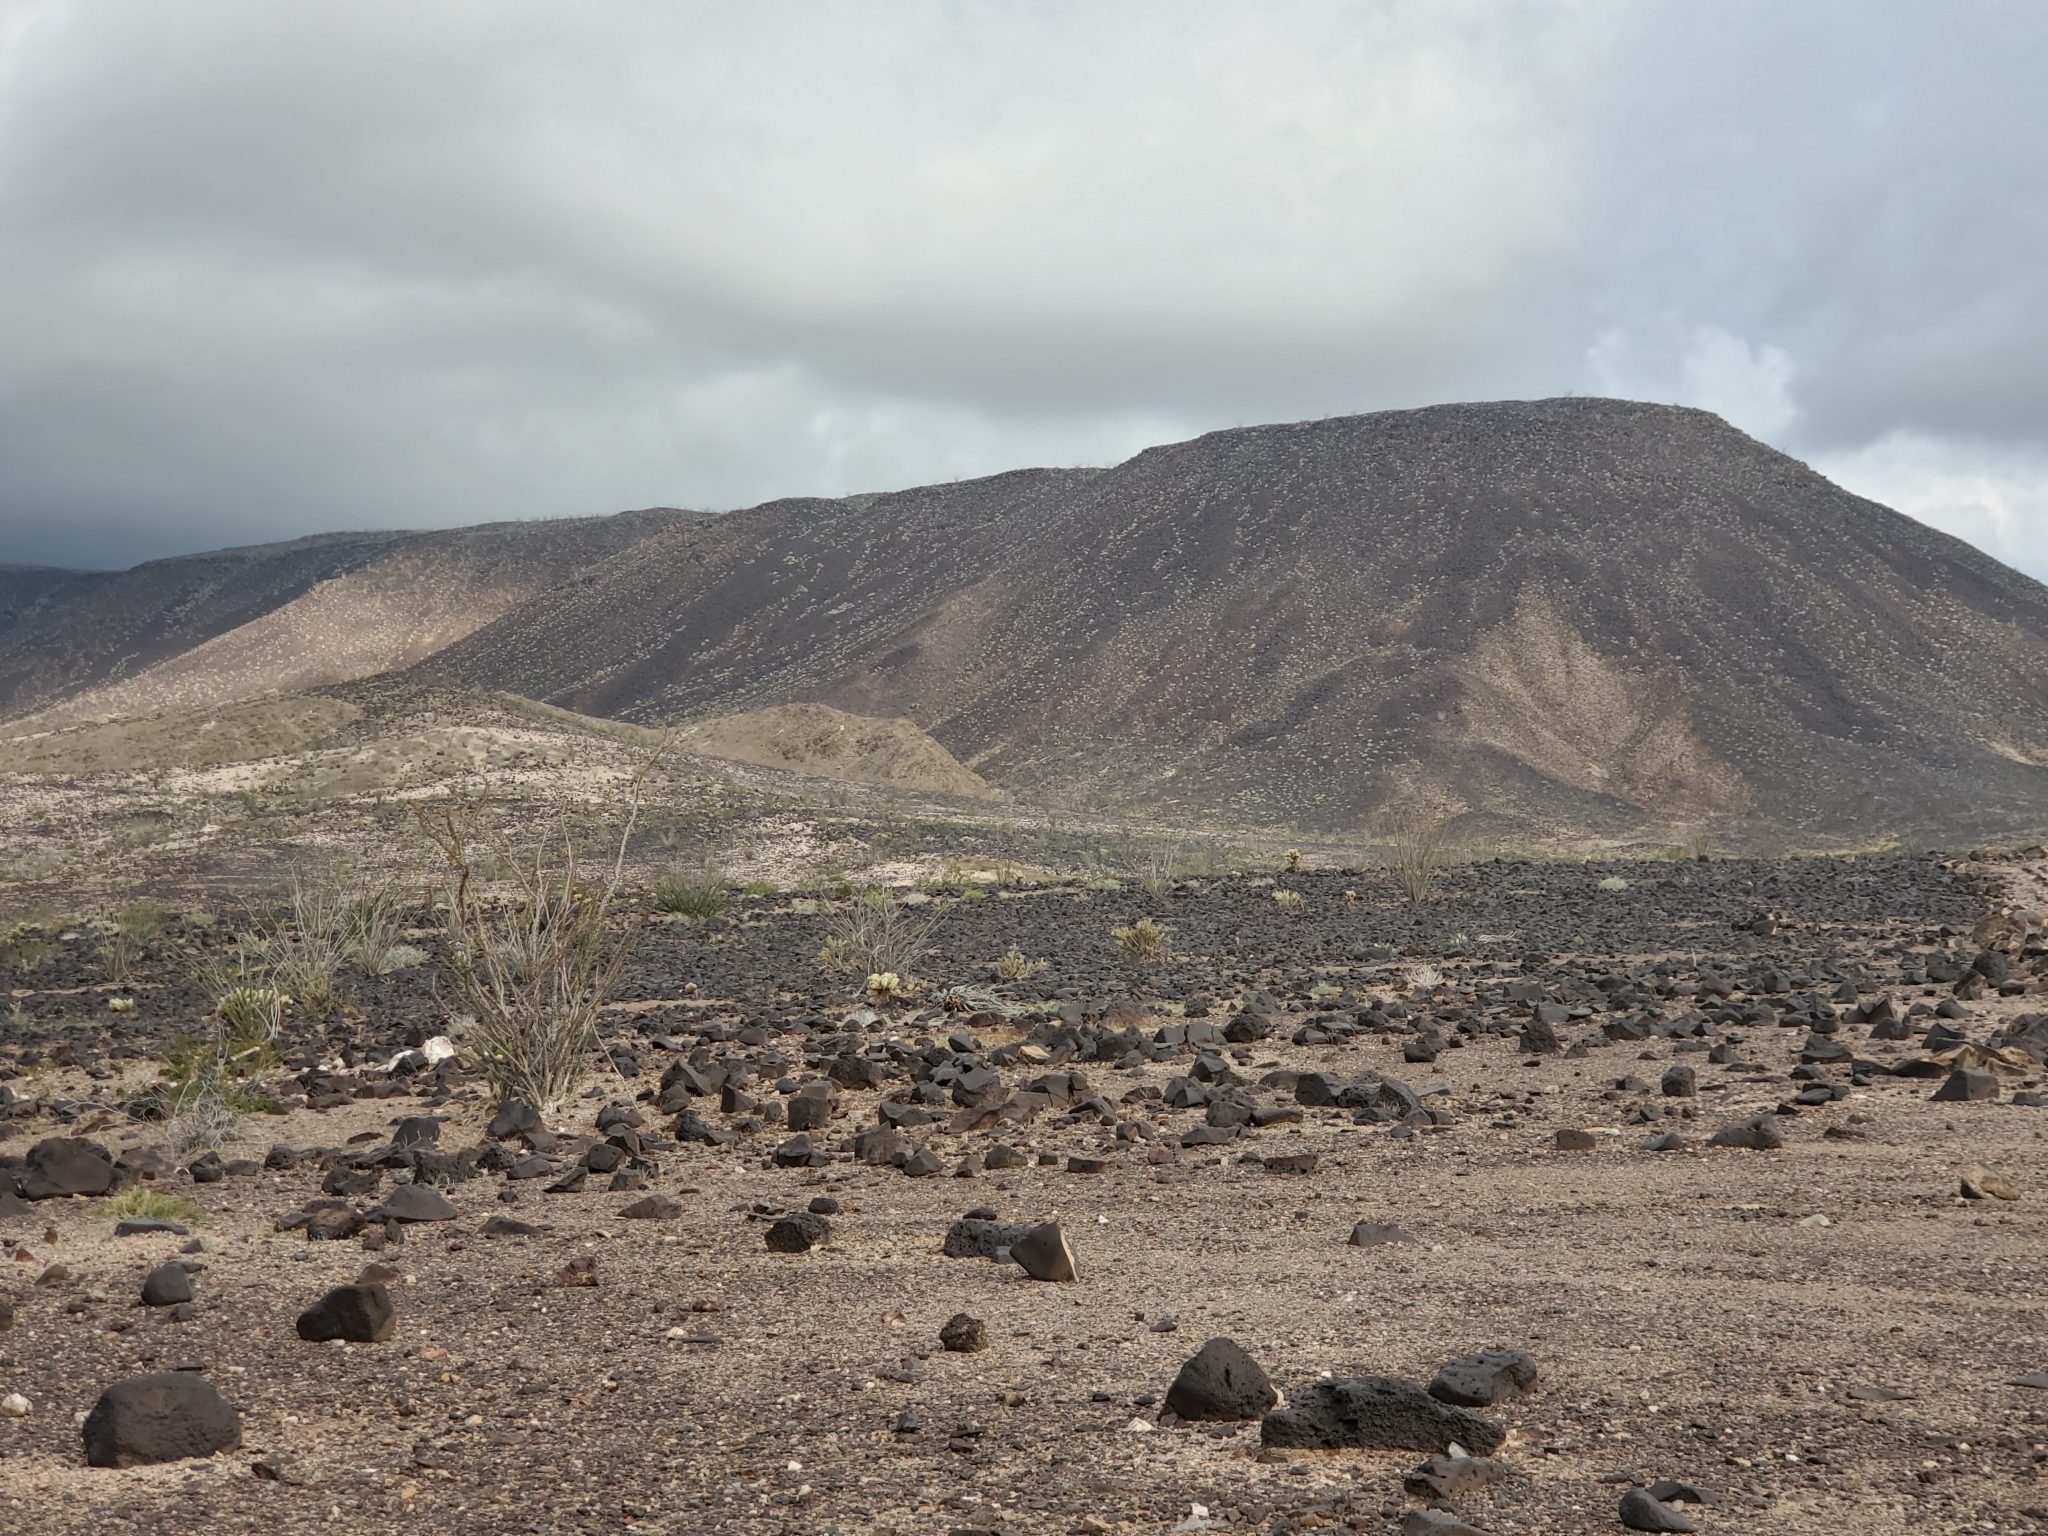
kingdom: Plantae
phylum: Tracheophyta
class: Magnoliopsida
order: Ericales
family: Fouquieriaceae
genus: Fouquieria
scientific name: Fouquieria splendens
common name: Vine-cactus
